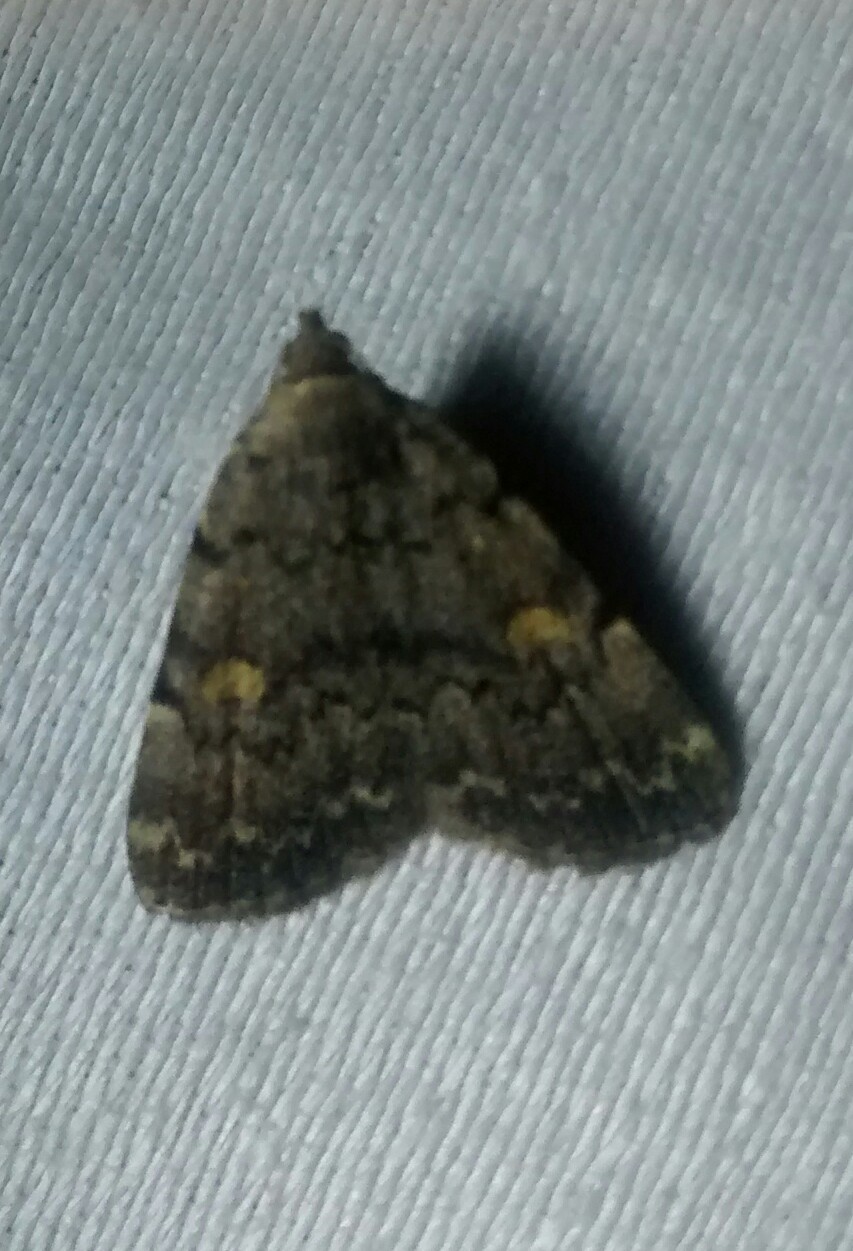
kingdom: Animalia
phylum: Arthropoda
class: Insecta
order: Lepidoptera
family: Erebidae
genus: Idia
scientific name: Idia aemula
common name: Common idia moth
